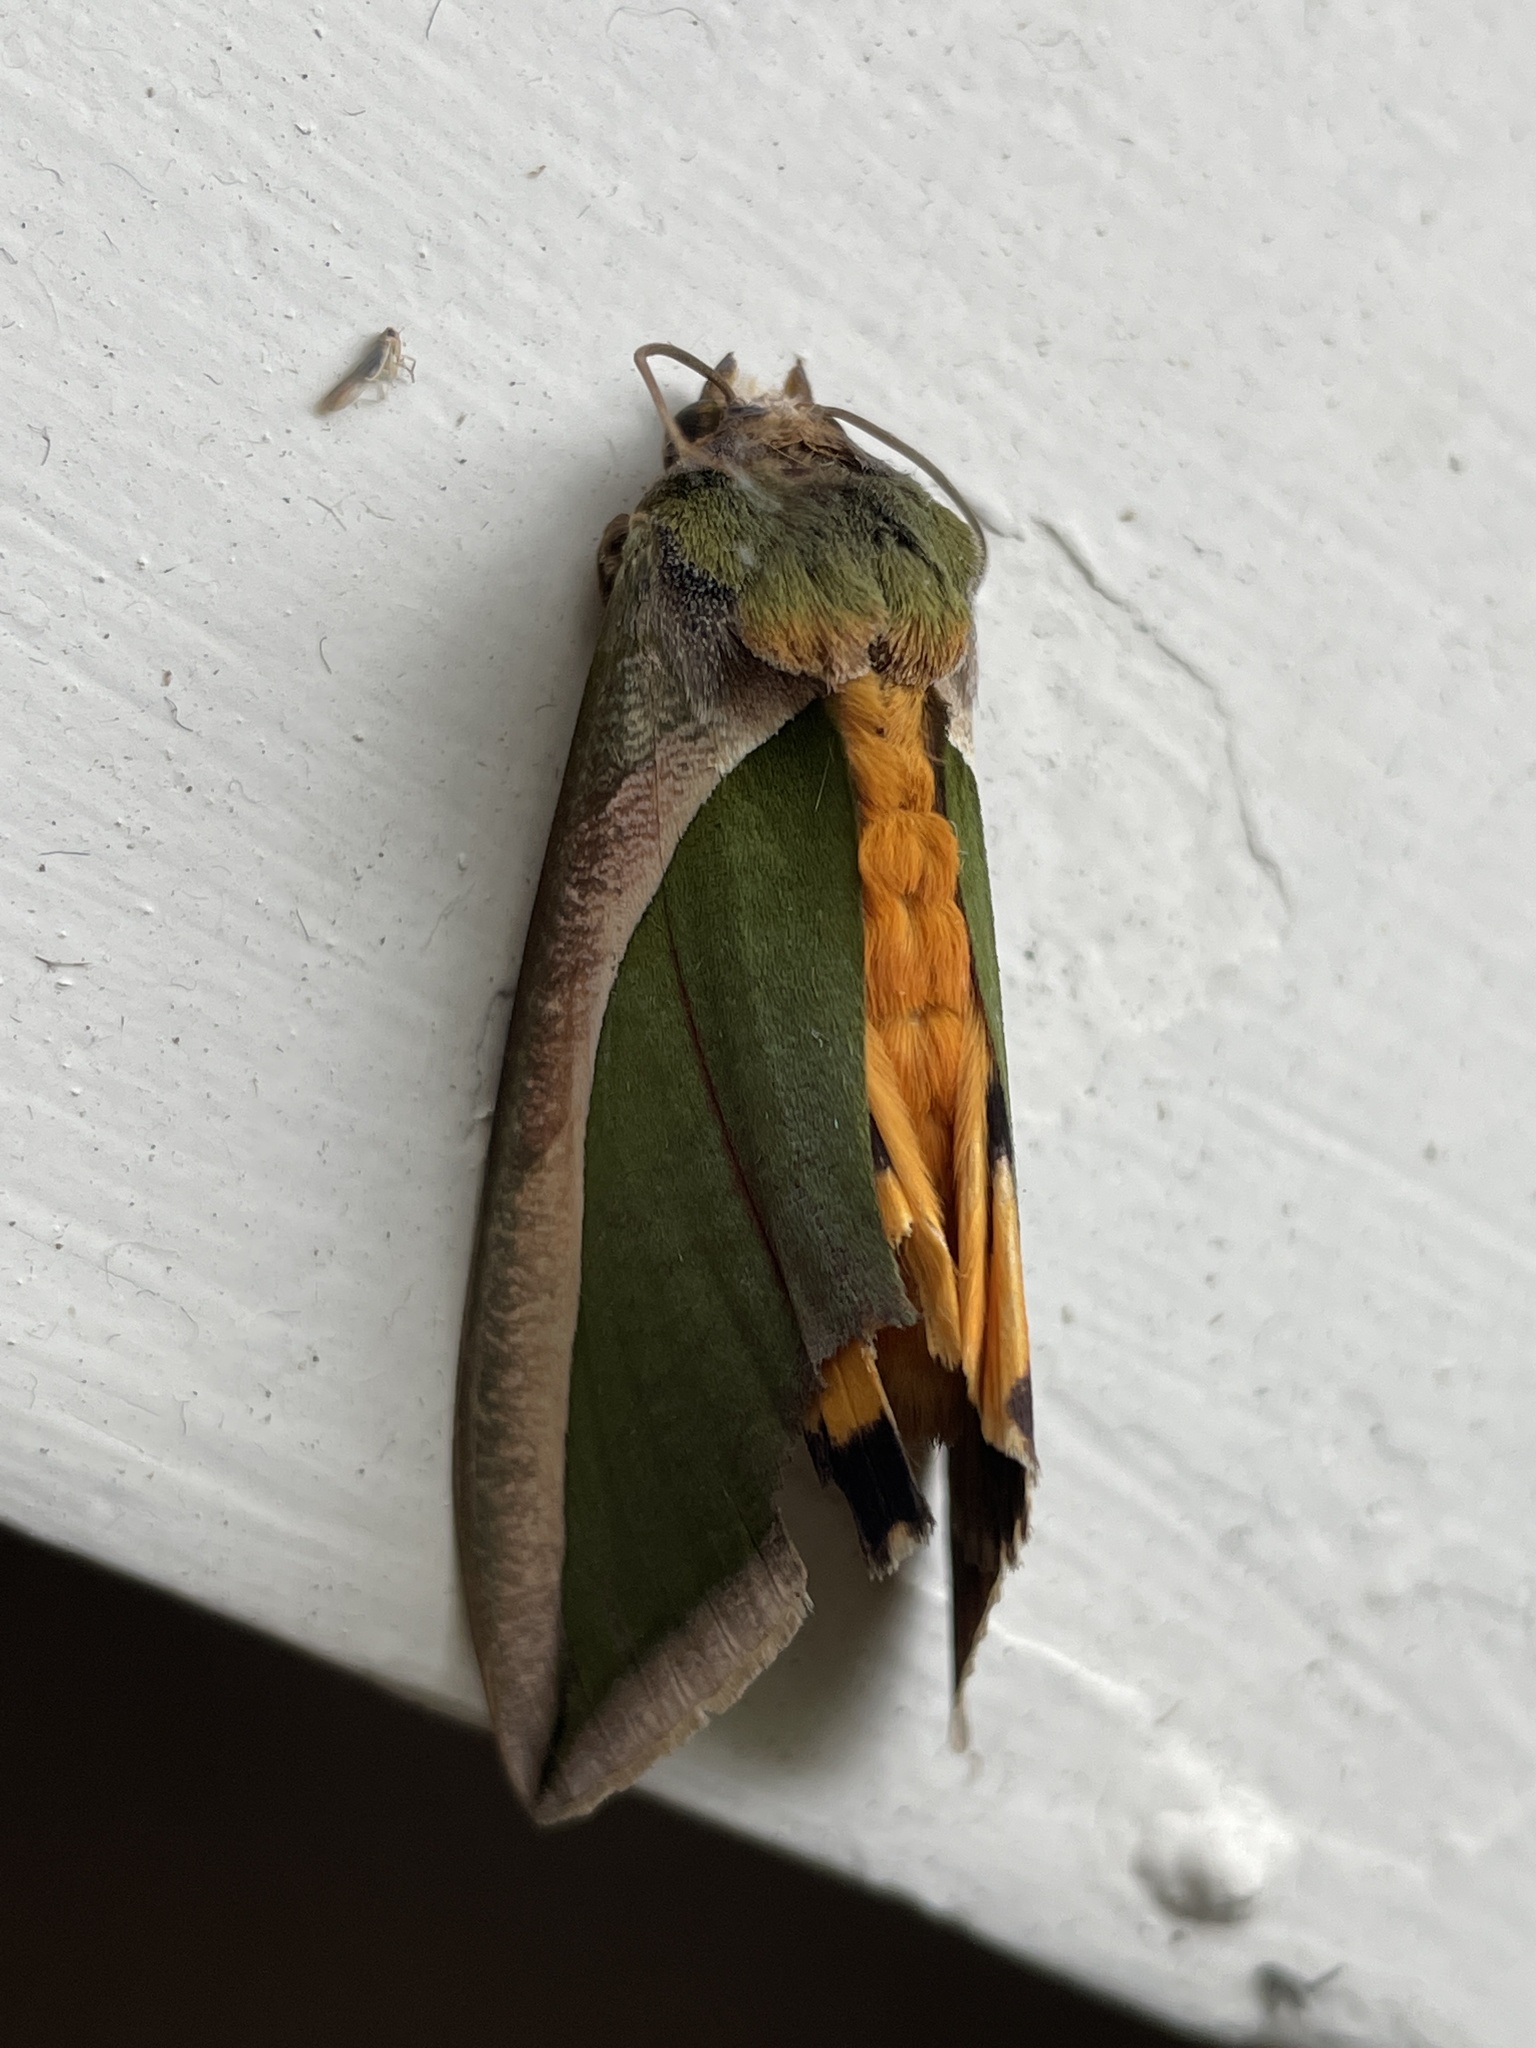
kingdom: Animalia
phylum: Arthropoda
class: Insecta
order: Lepidoptera
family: Erebidae
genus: Eudocima
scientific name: Eudocima salaminia
